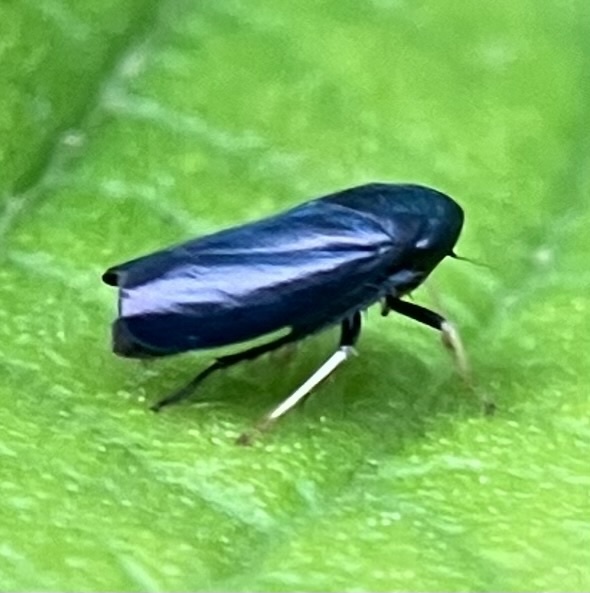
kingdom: Animalia
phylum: Arthropoda
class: Insecta
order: Hemiptera
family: Cicadellidae
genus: Scleroracus
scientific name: Scleroracus anthracinus
